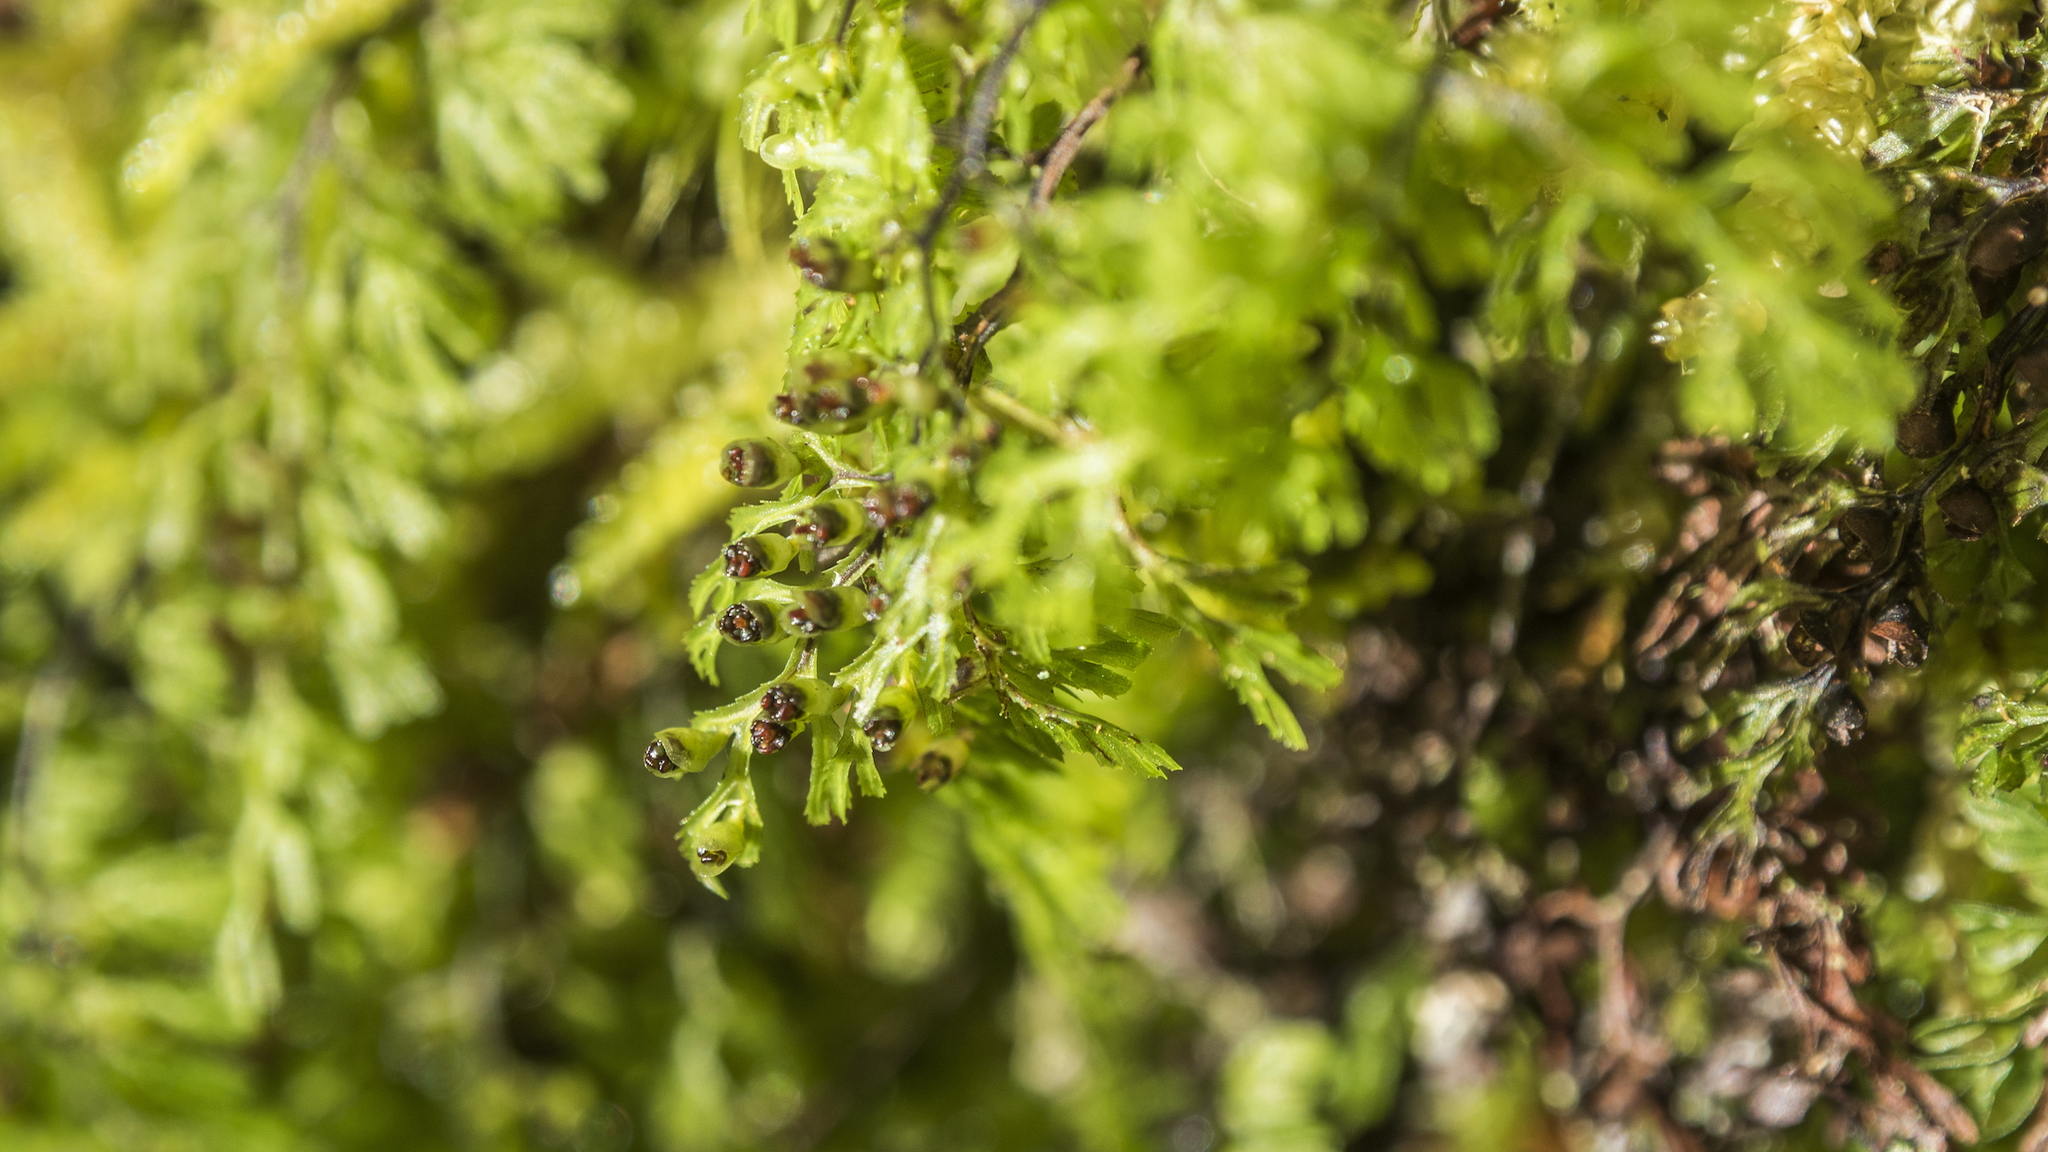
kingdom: Plantae
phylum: Tracheophyta
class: Polypodiopsida
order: Hymenophyllales
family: Hymenophyllaceae
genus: Hymenophyllum
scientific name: Hymenophyllum multifidum
